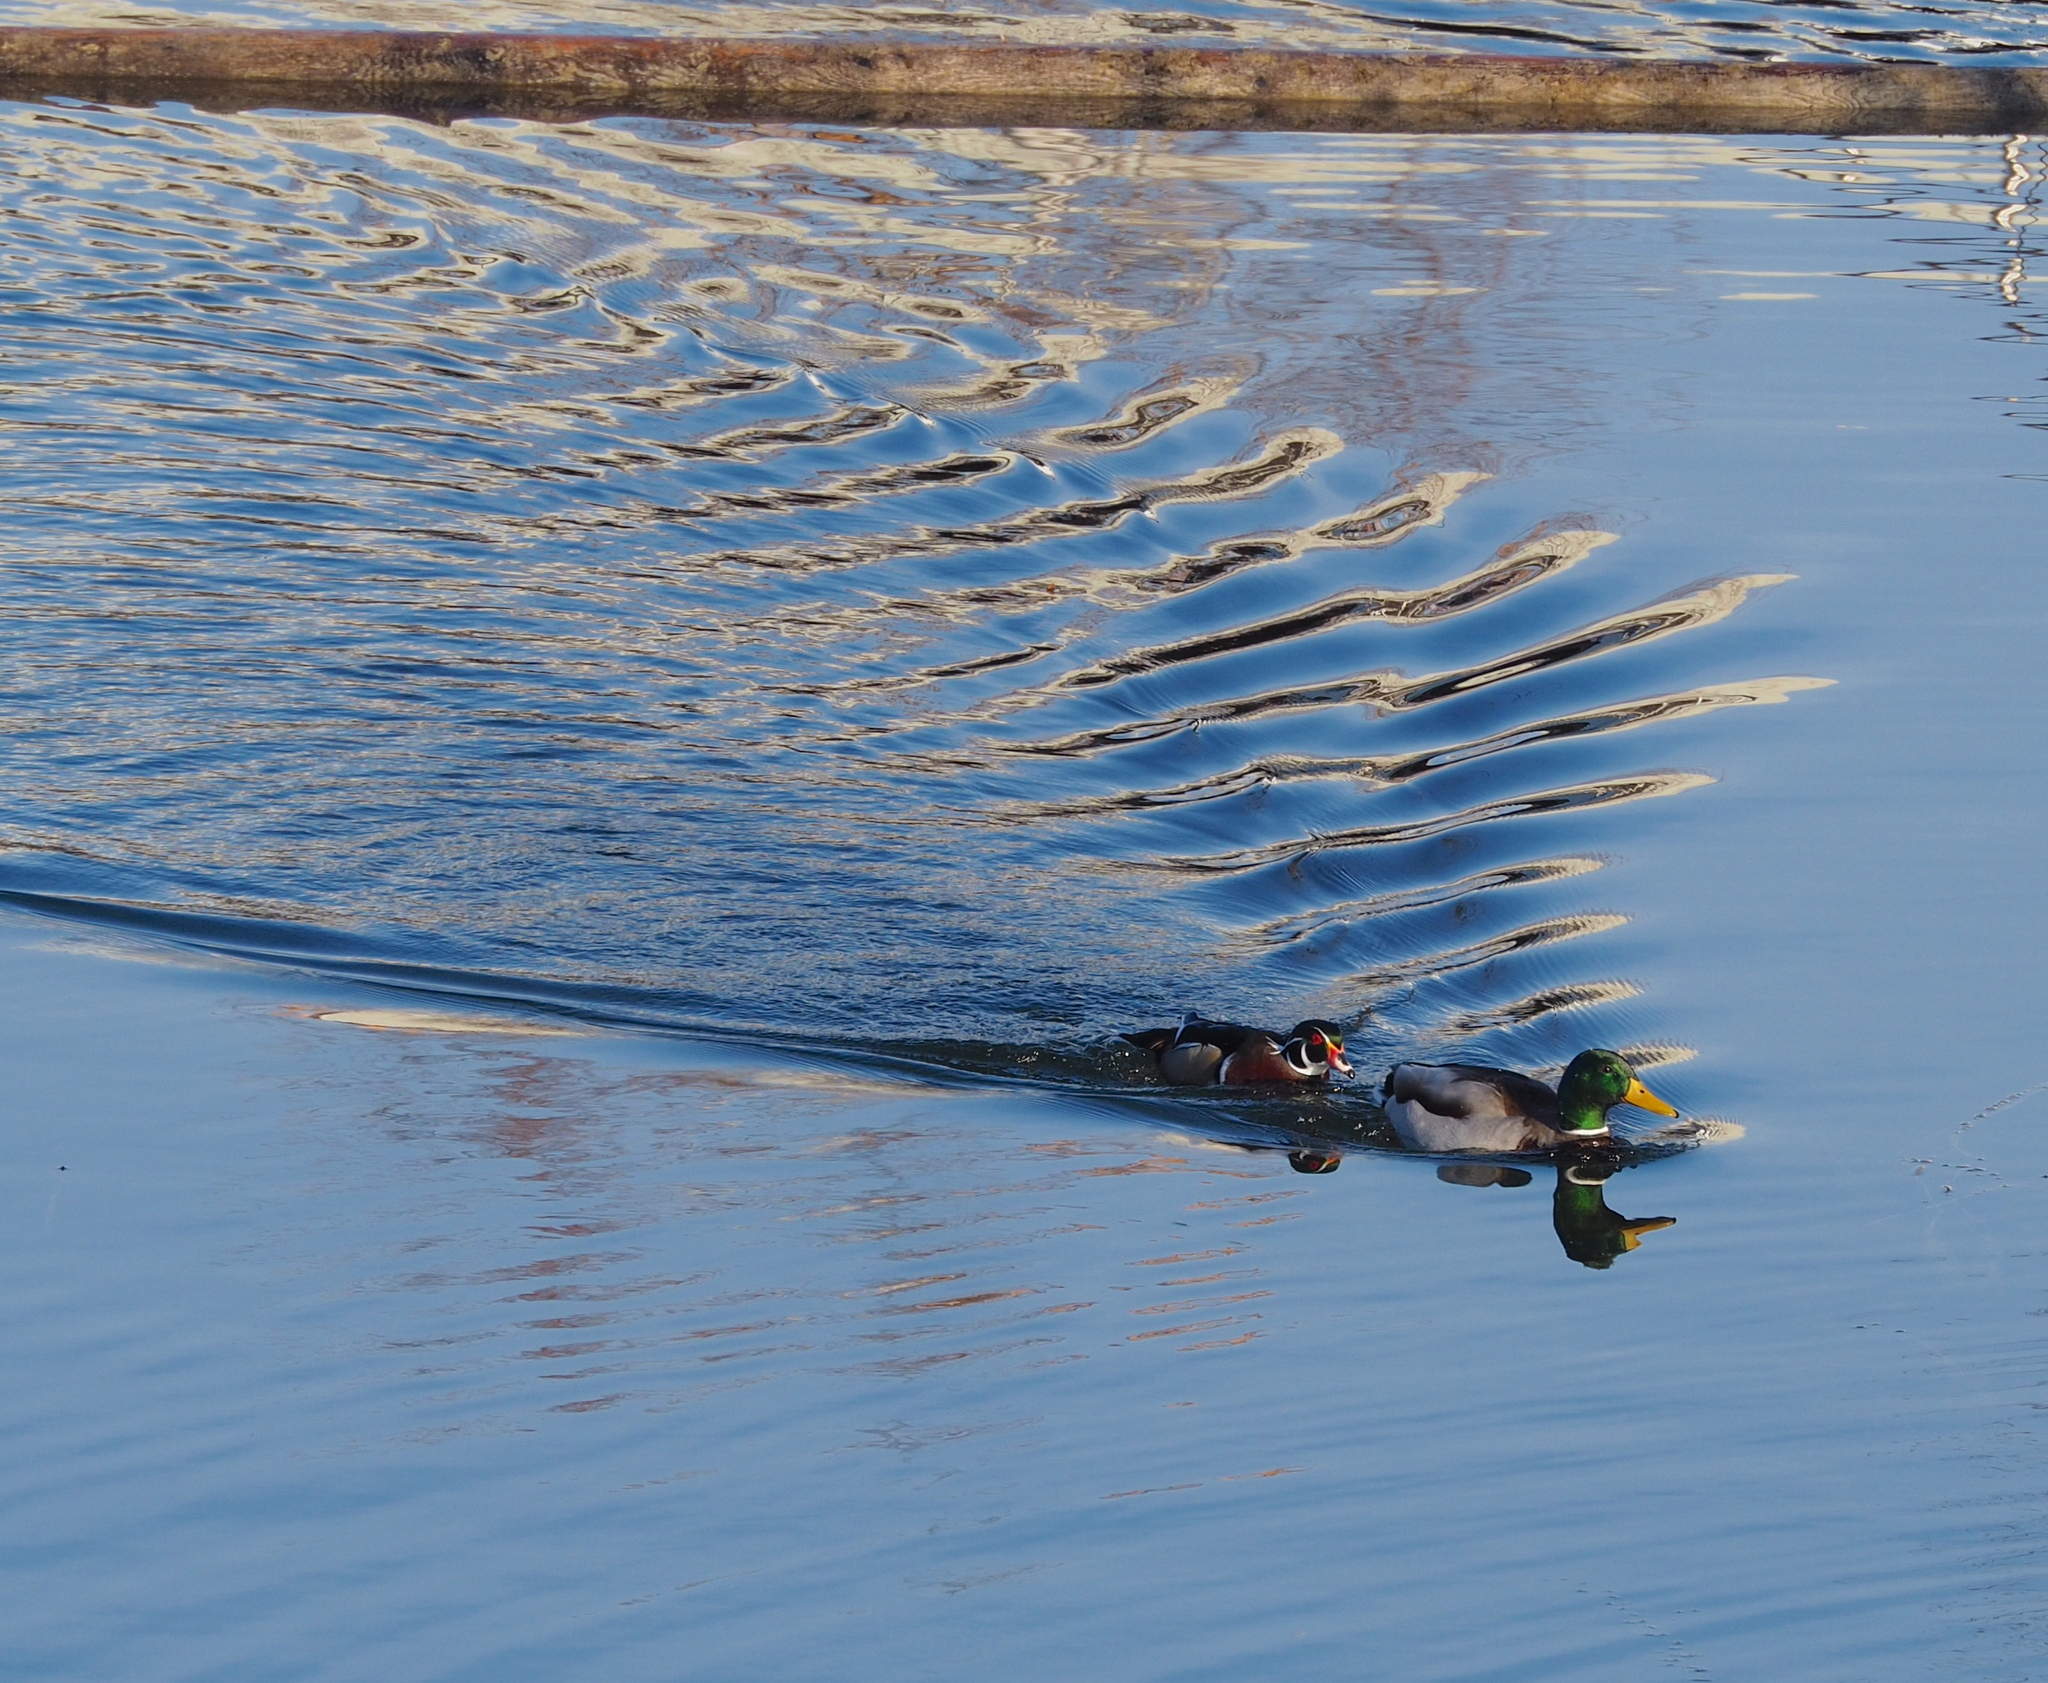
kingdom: Animalia
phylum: Chordata
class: Aves
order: Anseriformes
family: Anatidae
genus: Aix
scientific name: Aix sponsa
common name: Wood duck
